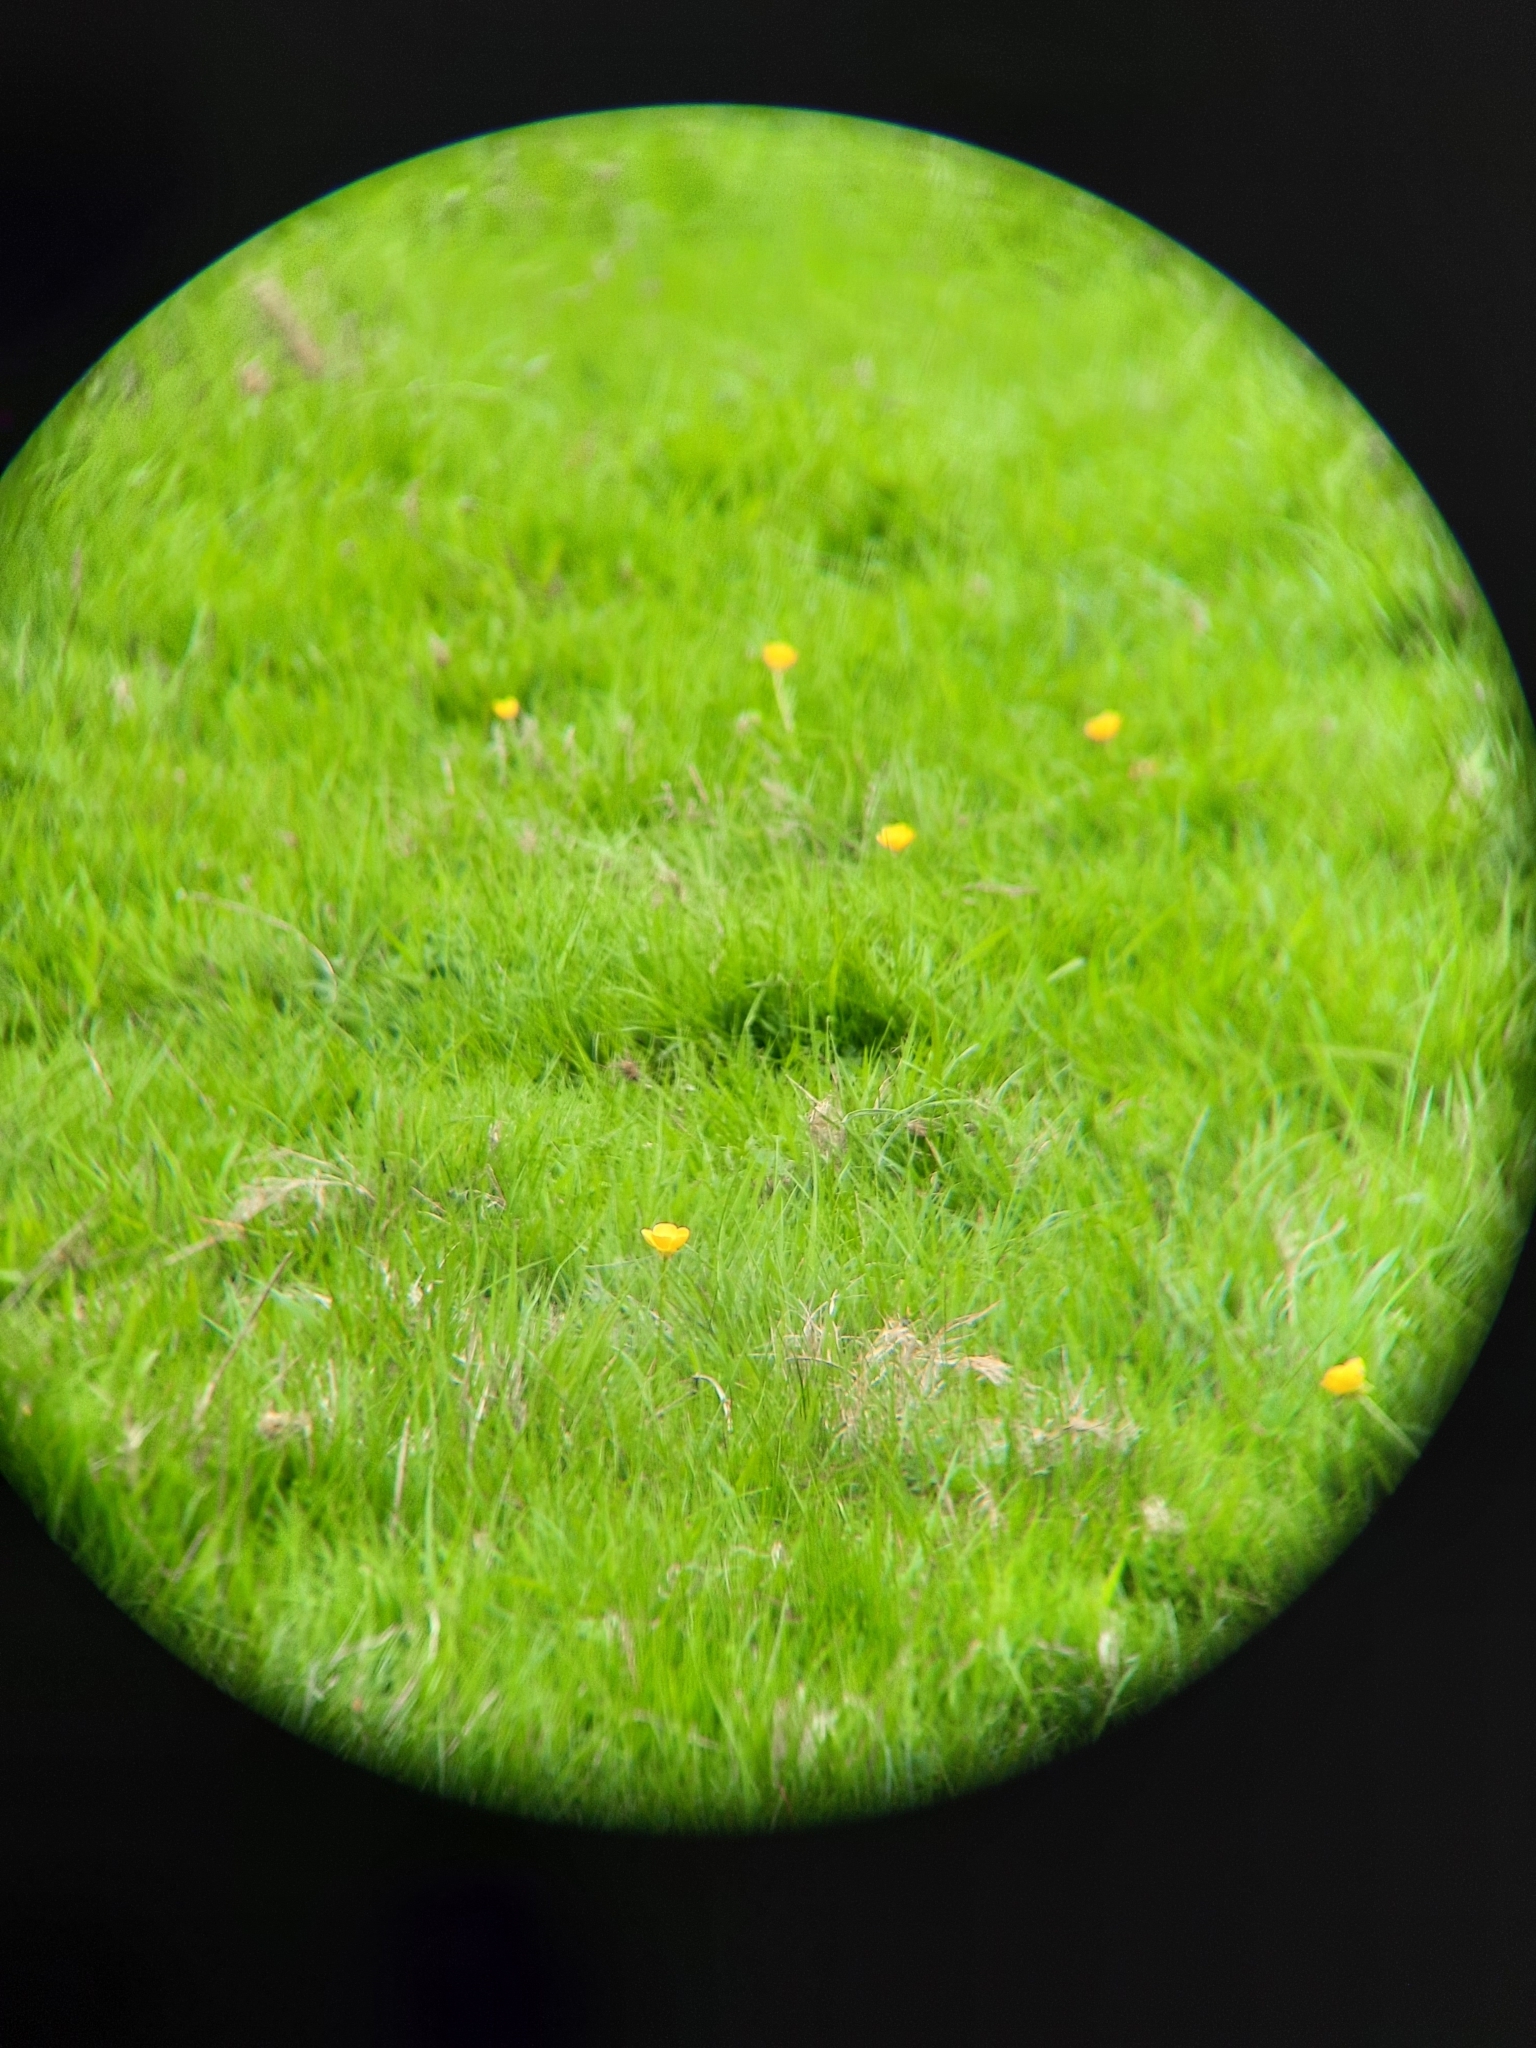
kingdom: Plantae
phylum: Tracheophyta
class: Magnoliopsida
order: Ranunculales
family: Ranunculaceae
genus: Ranunculus
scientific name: Ranunculus bulbosus
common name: Bulbous buttercup
